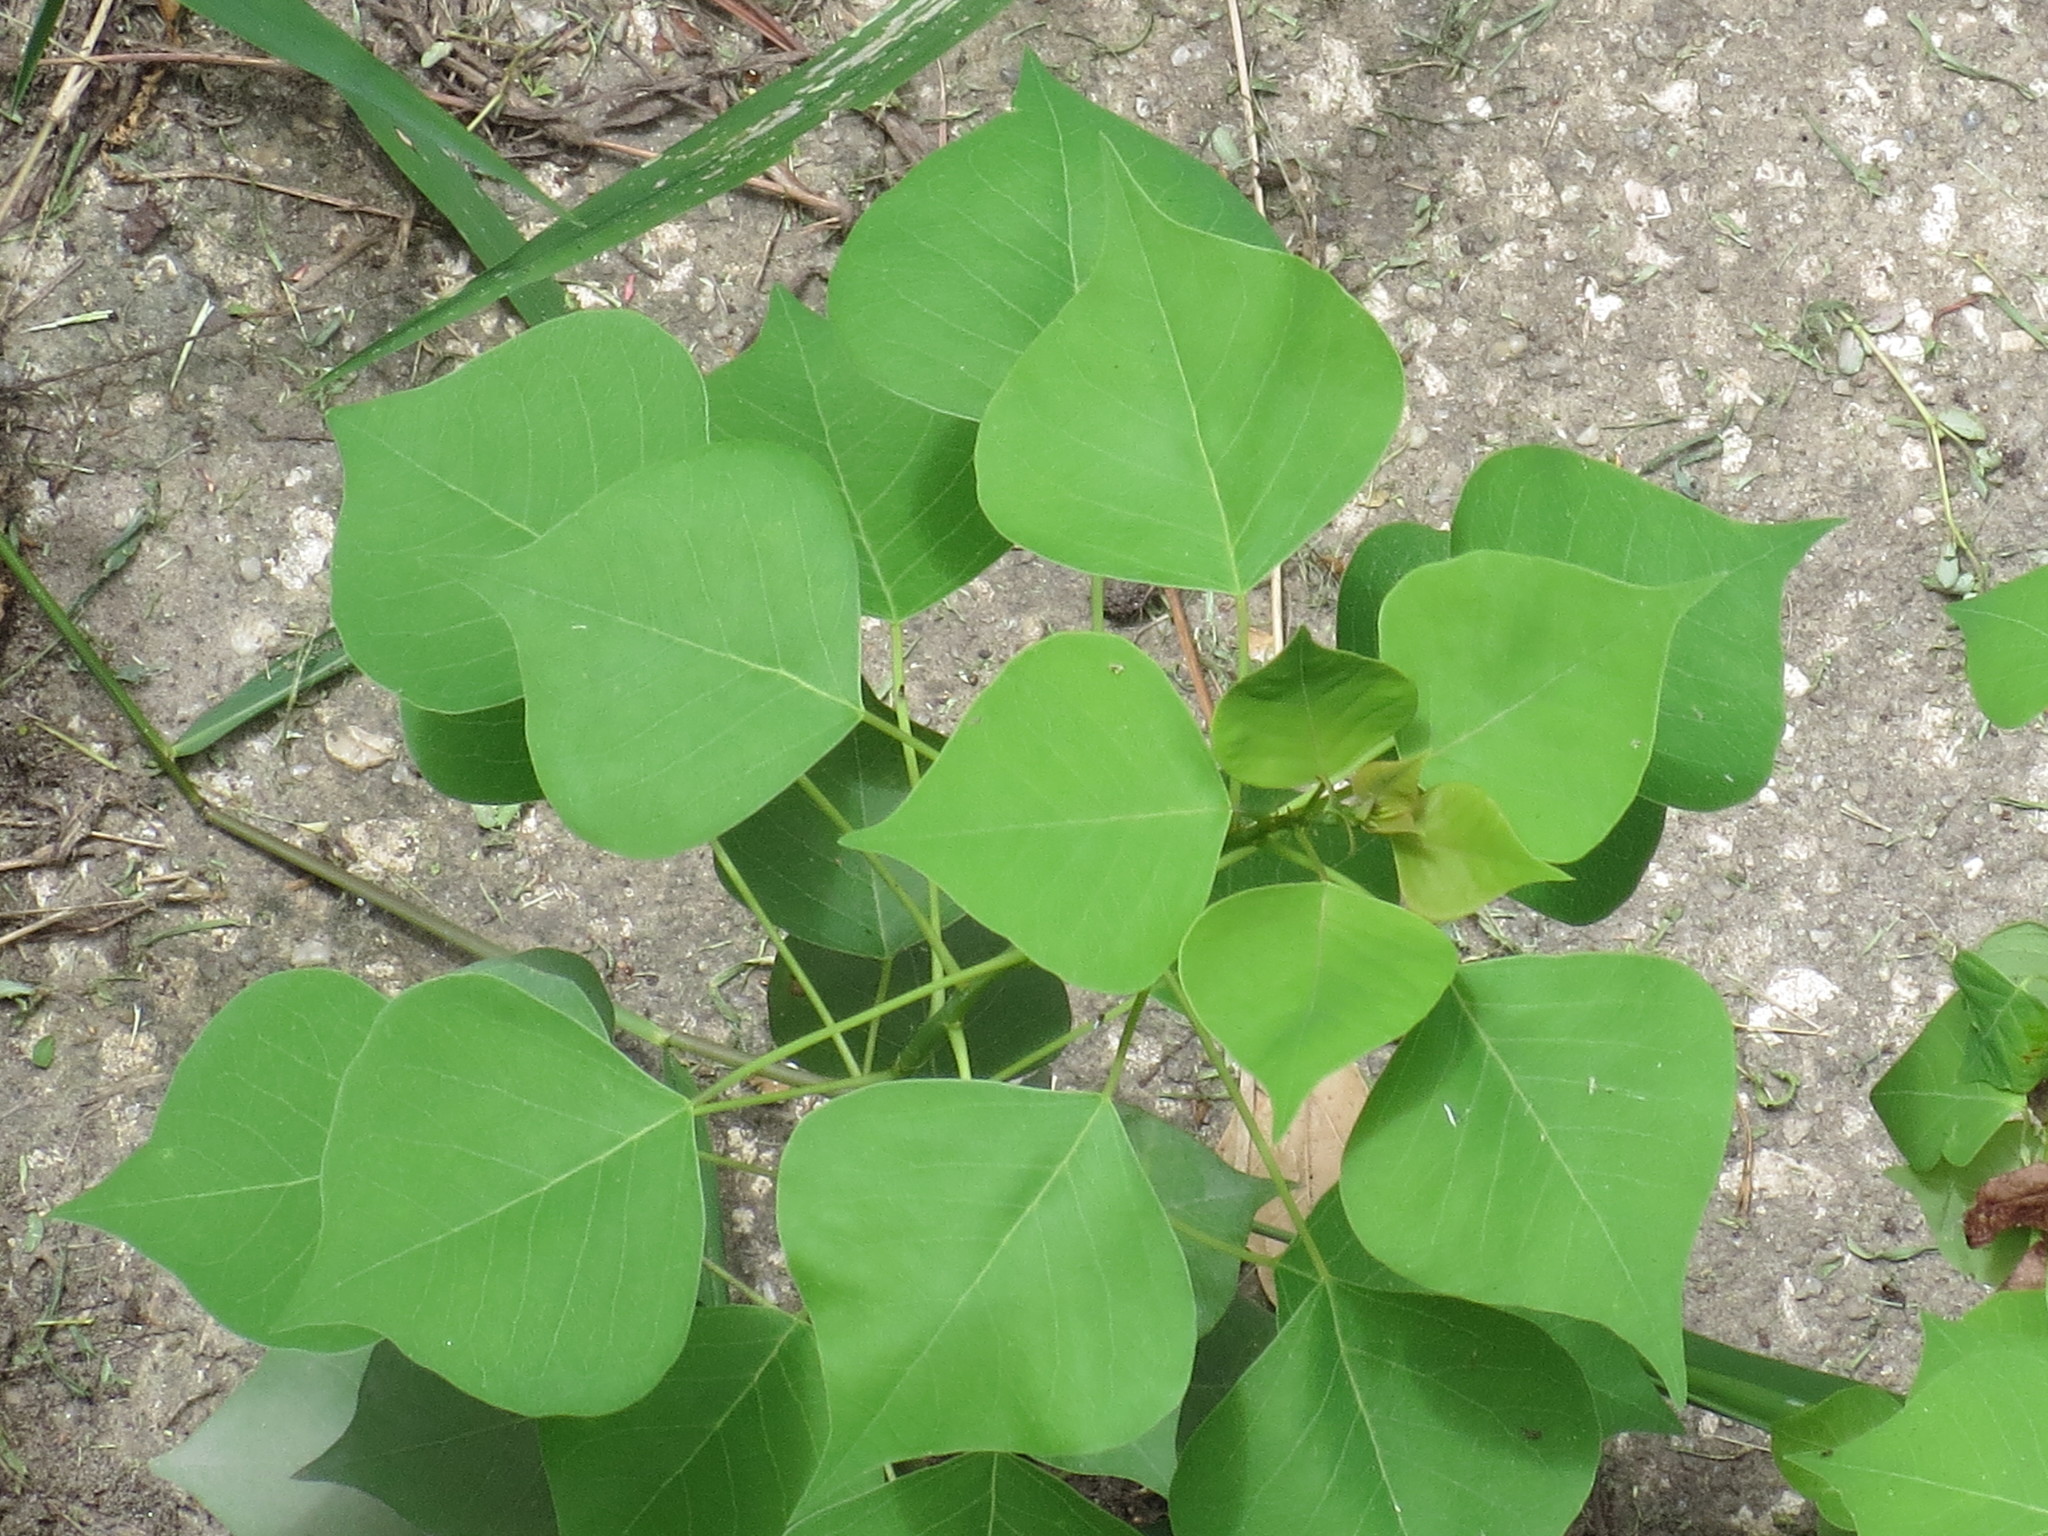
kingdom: Plantae
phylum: Tracheophyta
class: Magnoliopsida
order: Malpighiales
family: Euphorbiaceae
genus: Triadica
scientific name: Triadica sebifera
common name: Chinese tallow
